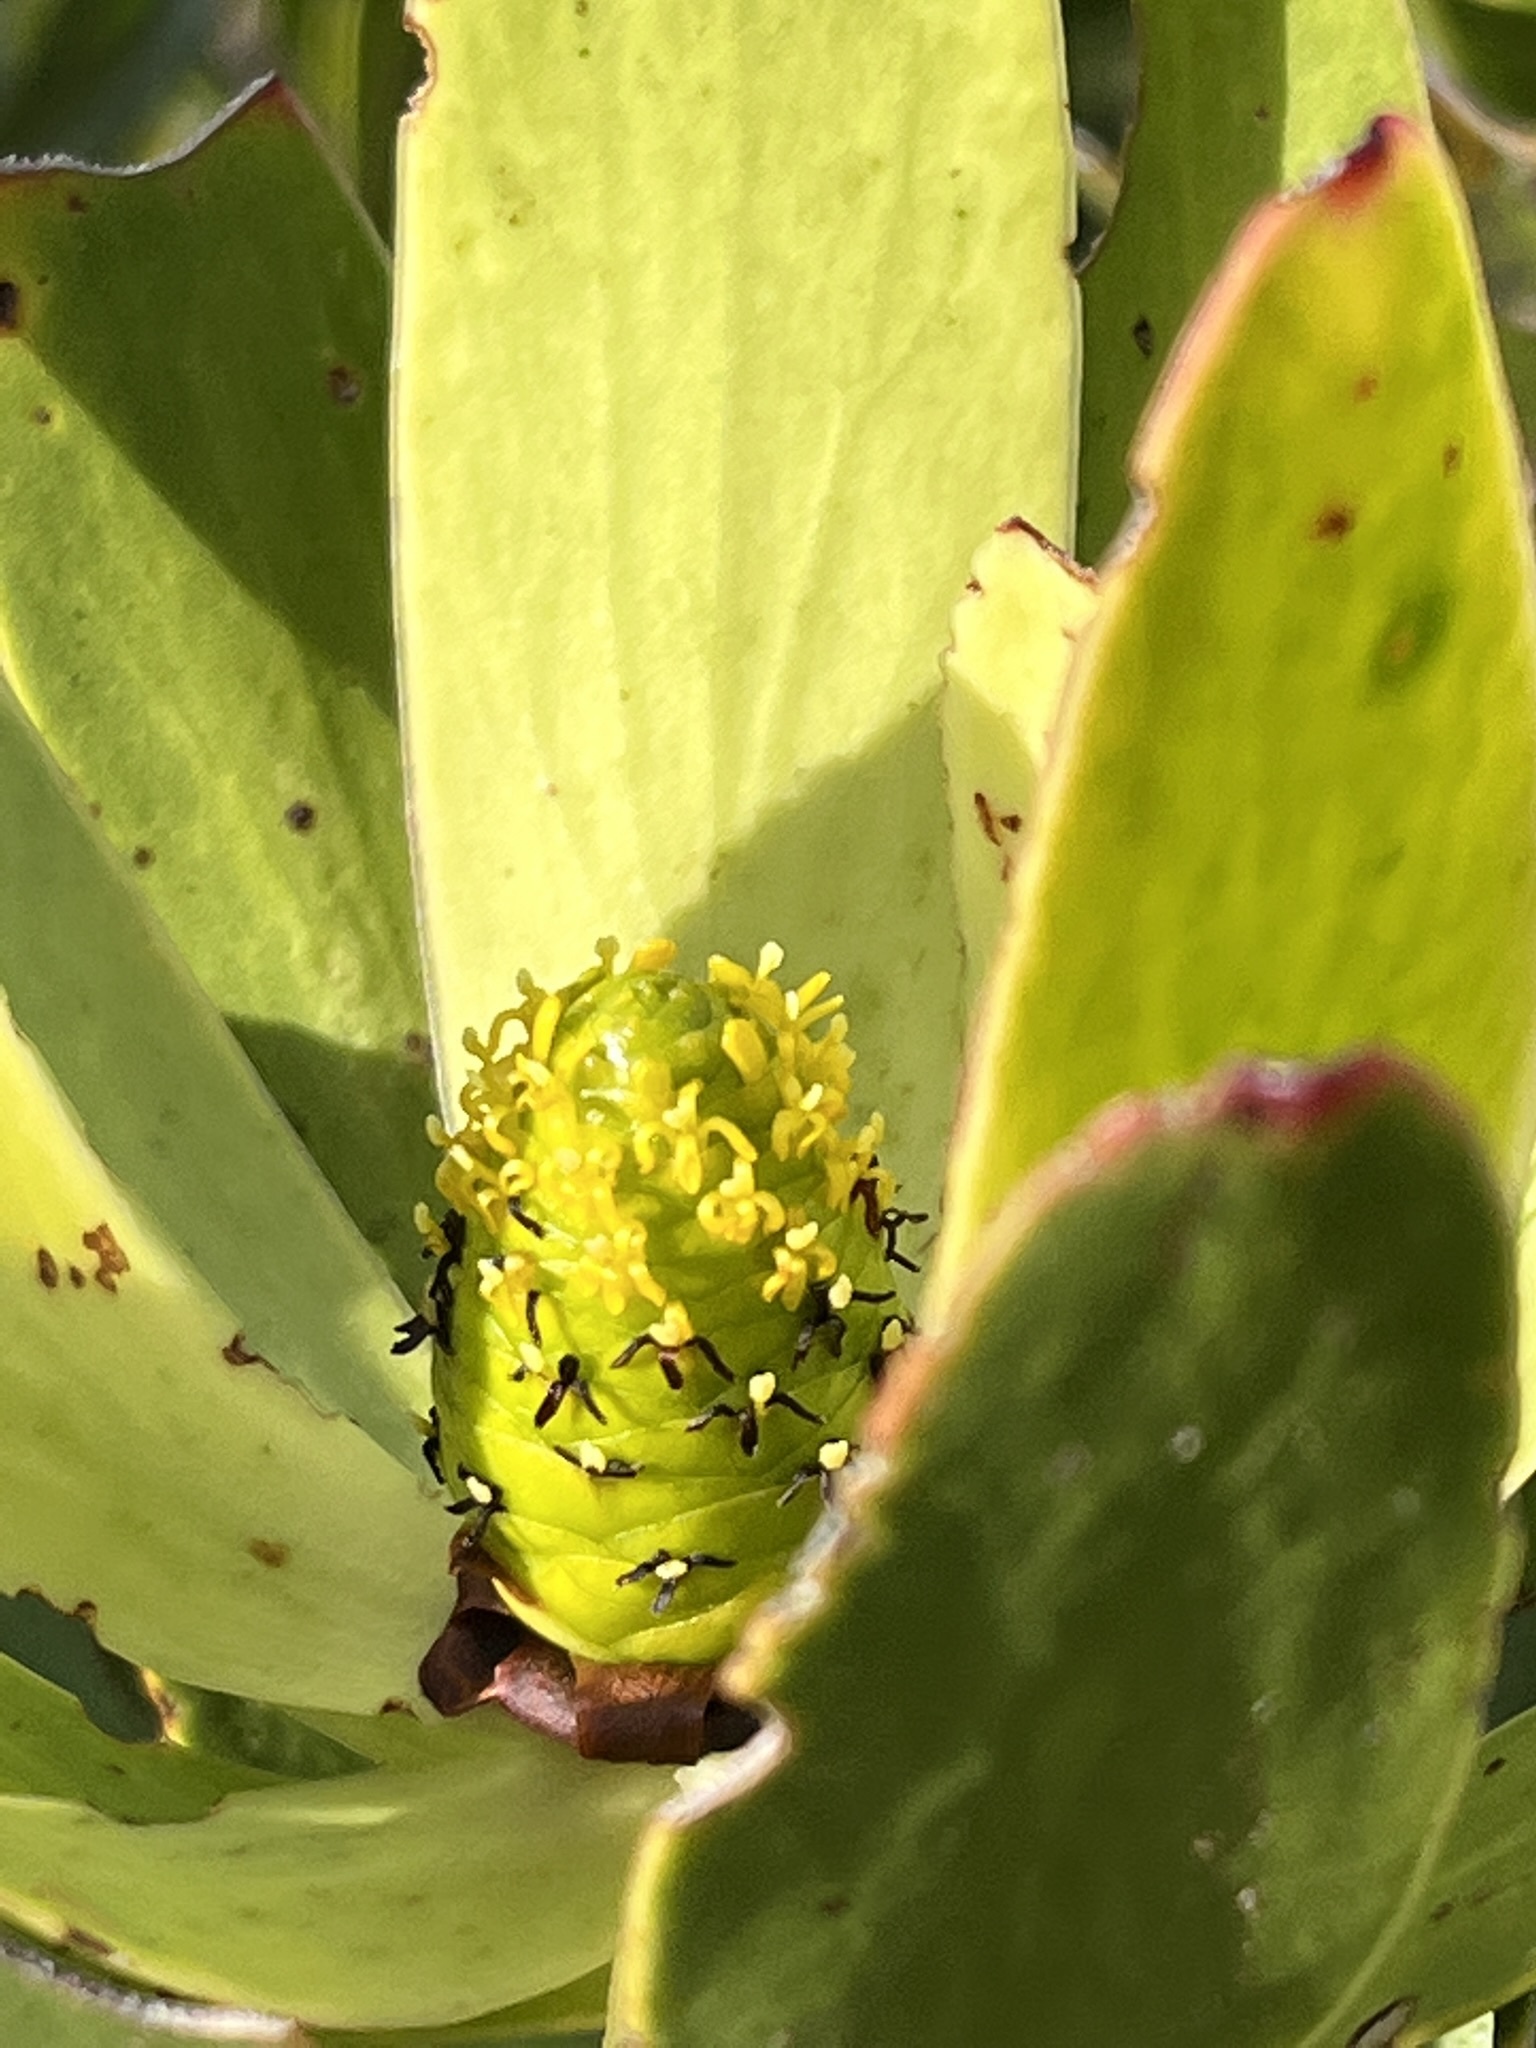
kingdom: Plantae
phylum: Tracheophyta
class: Magnoliopsida
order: Proteales
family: Proteaceae
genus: Leucadendron
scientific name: Leucadendron microcephalum
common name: Oilbract conebush
